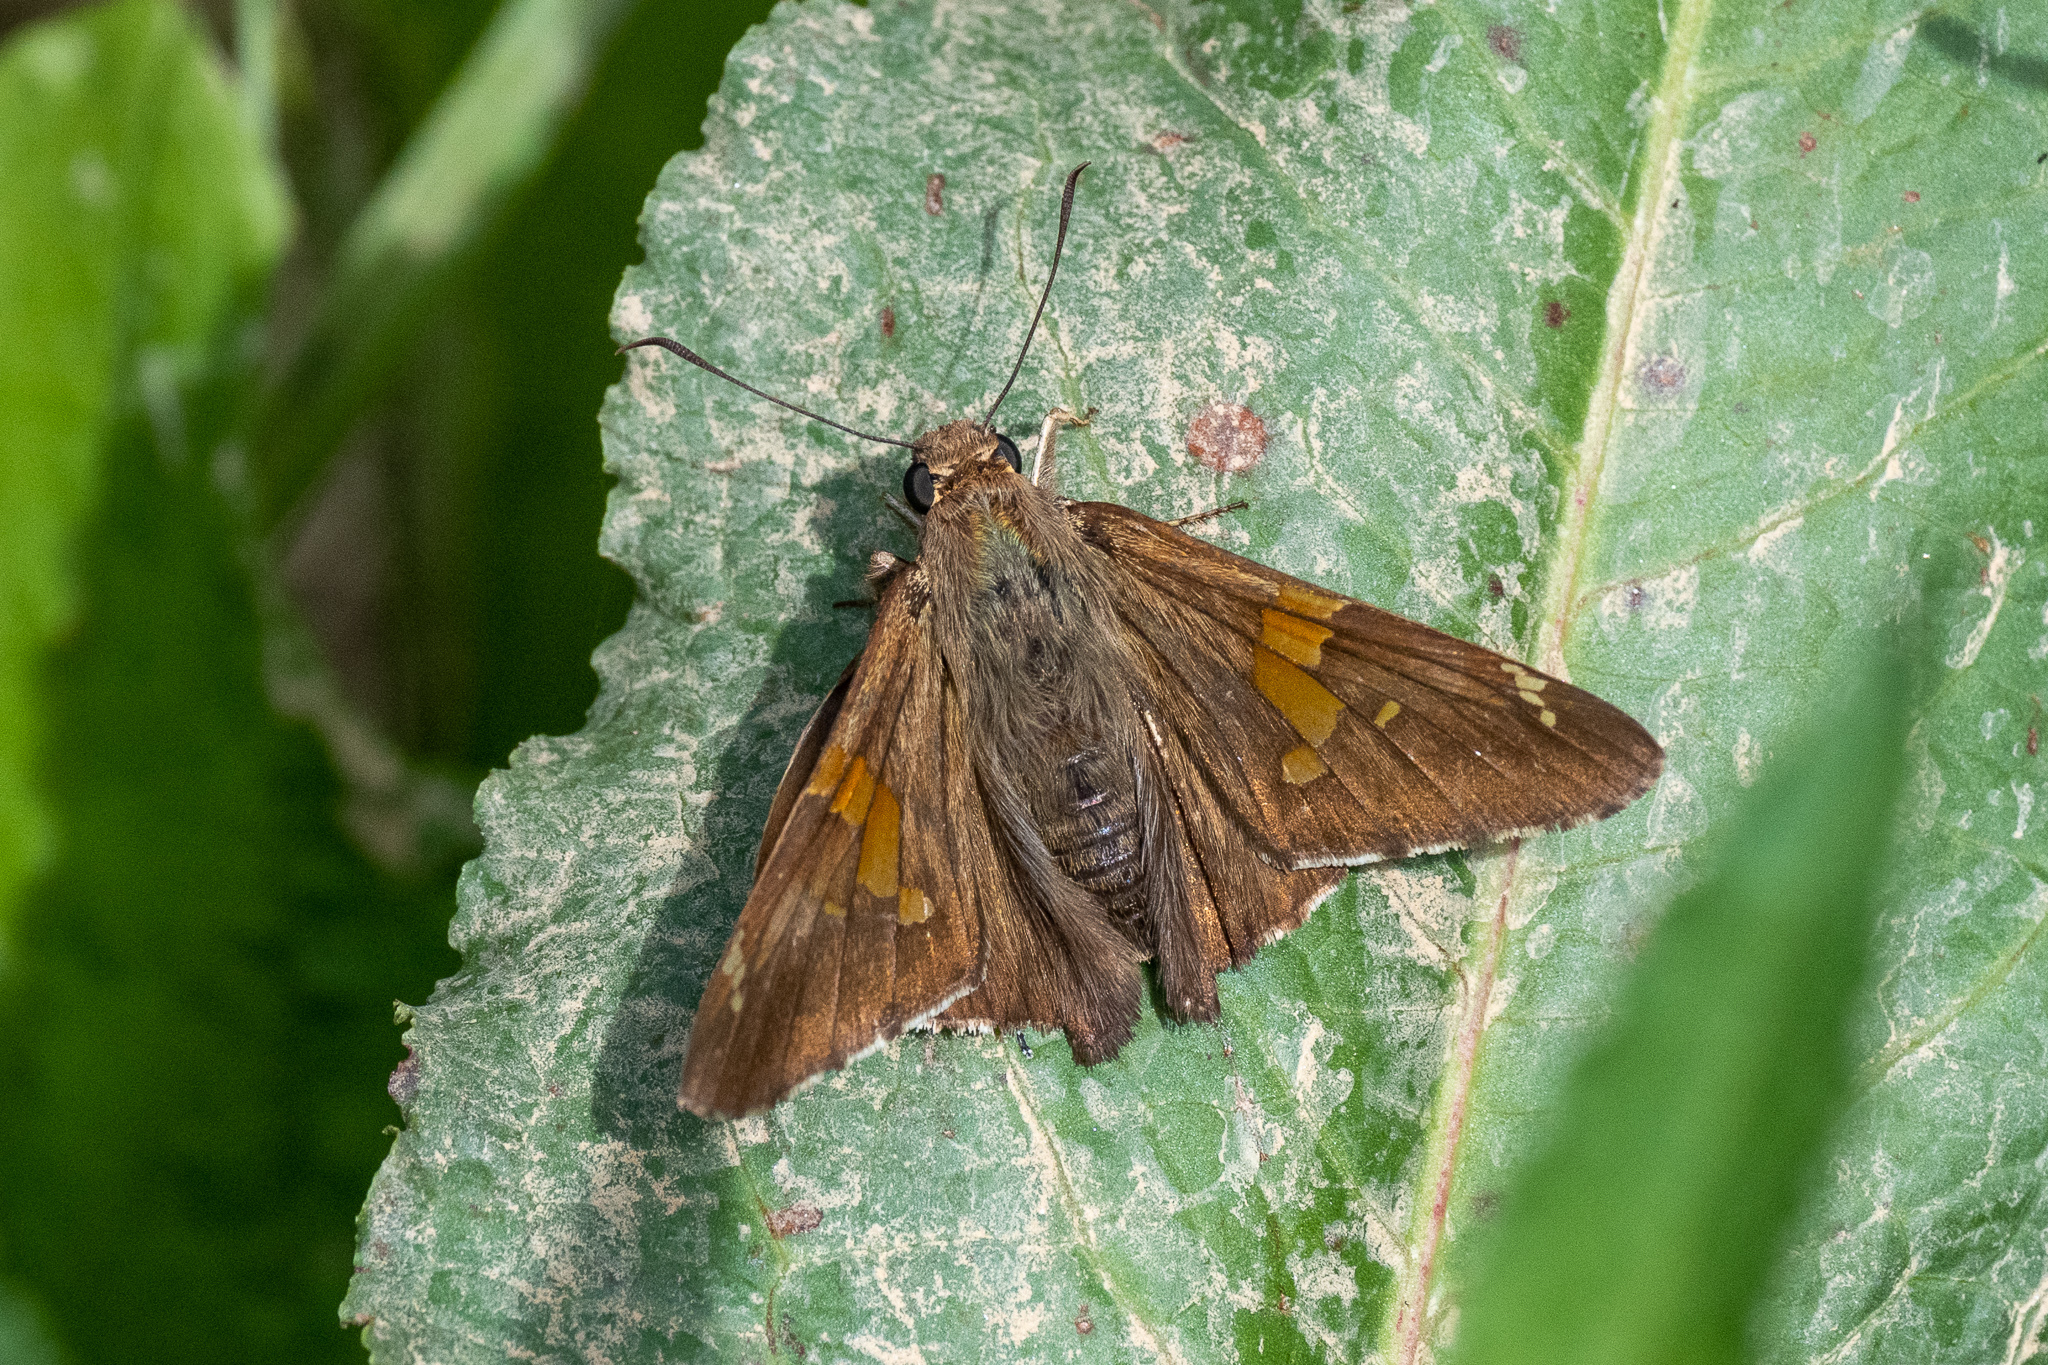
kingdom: Animalia
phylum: Arthropoda
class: Insecta
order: Lepidoptera
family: Hesperiidae
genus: Epargyreus
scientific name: Epargyreus clarus
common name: Silver-spotted skipper
